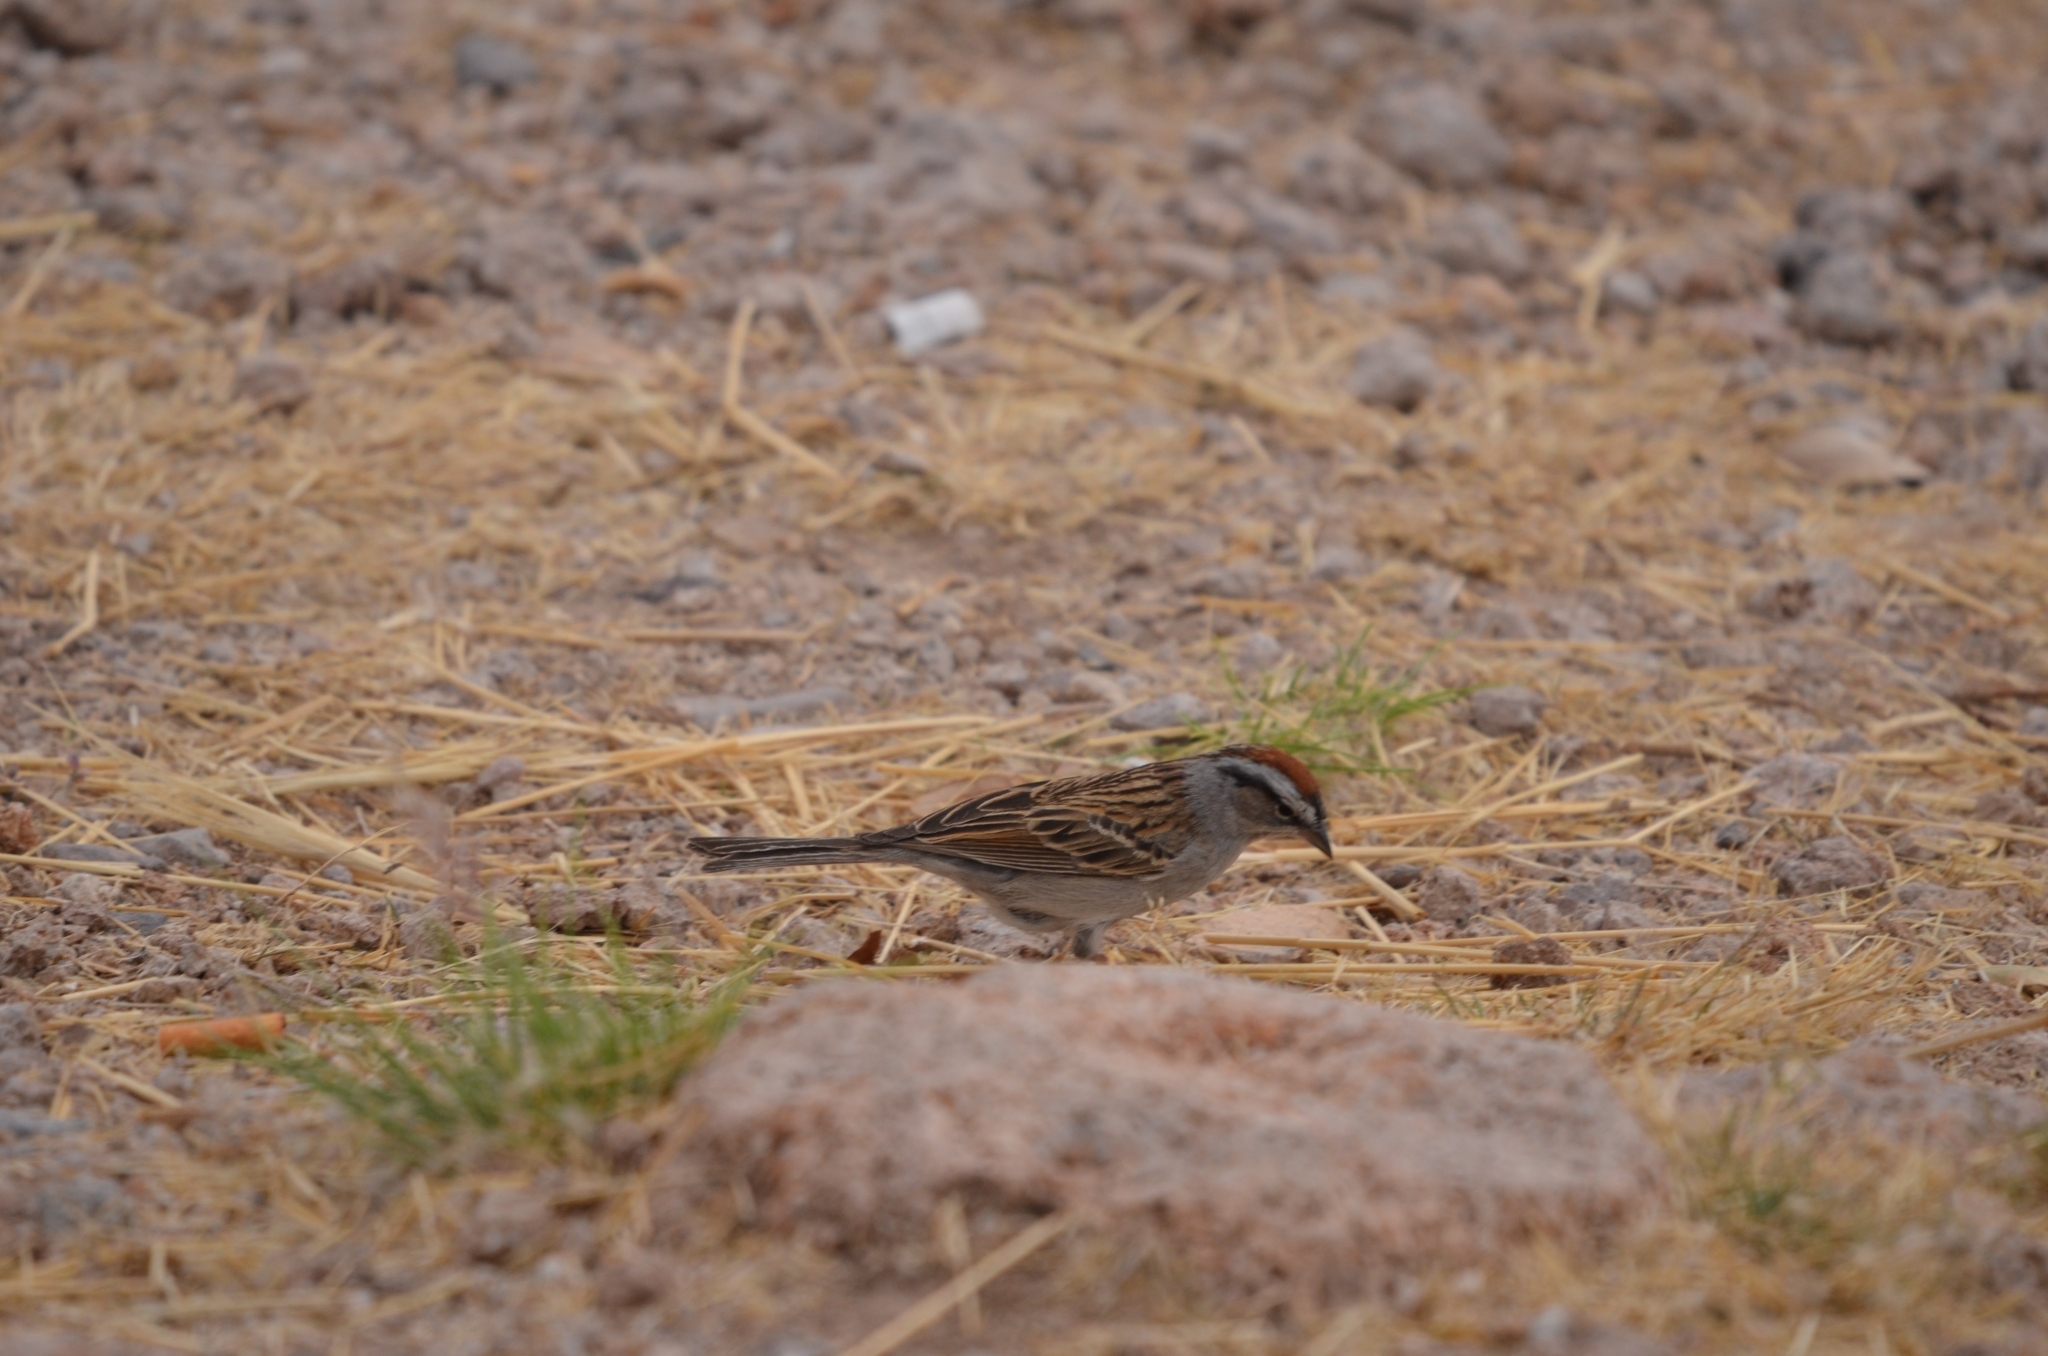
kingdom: Animalia
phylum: Chordata
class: Aves
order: Passeriformes
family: Passerellidae
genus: Spizella
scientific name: Spizella passerina
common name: Chipping sparrow
